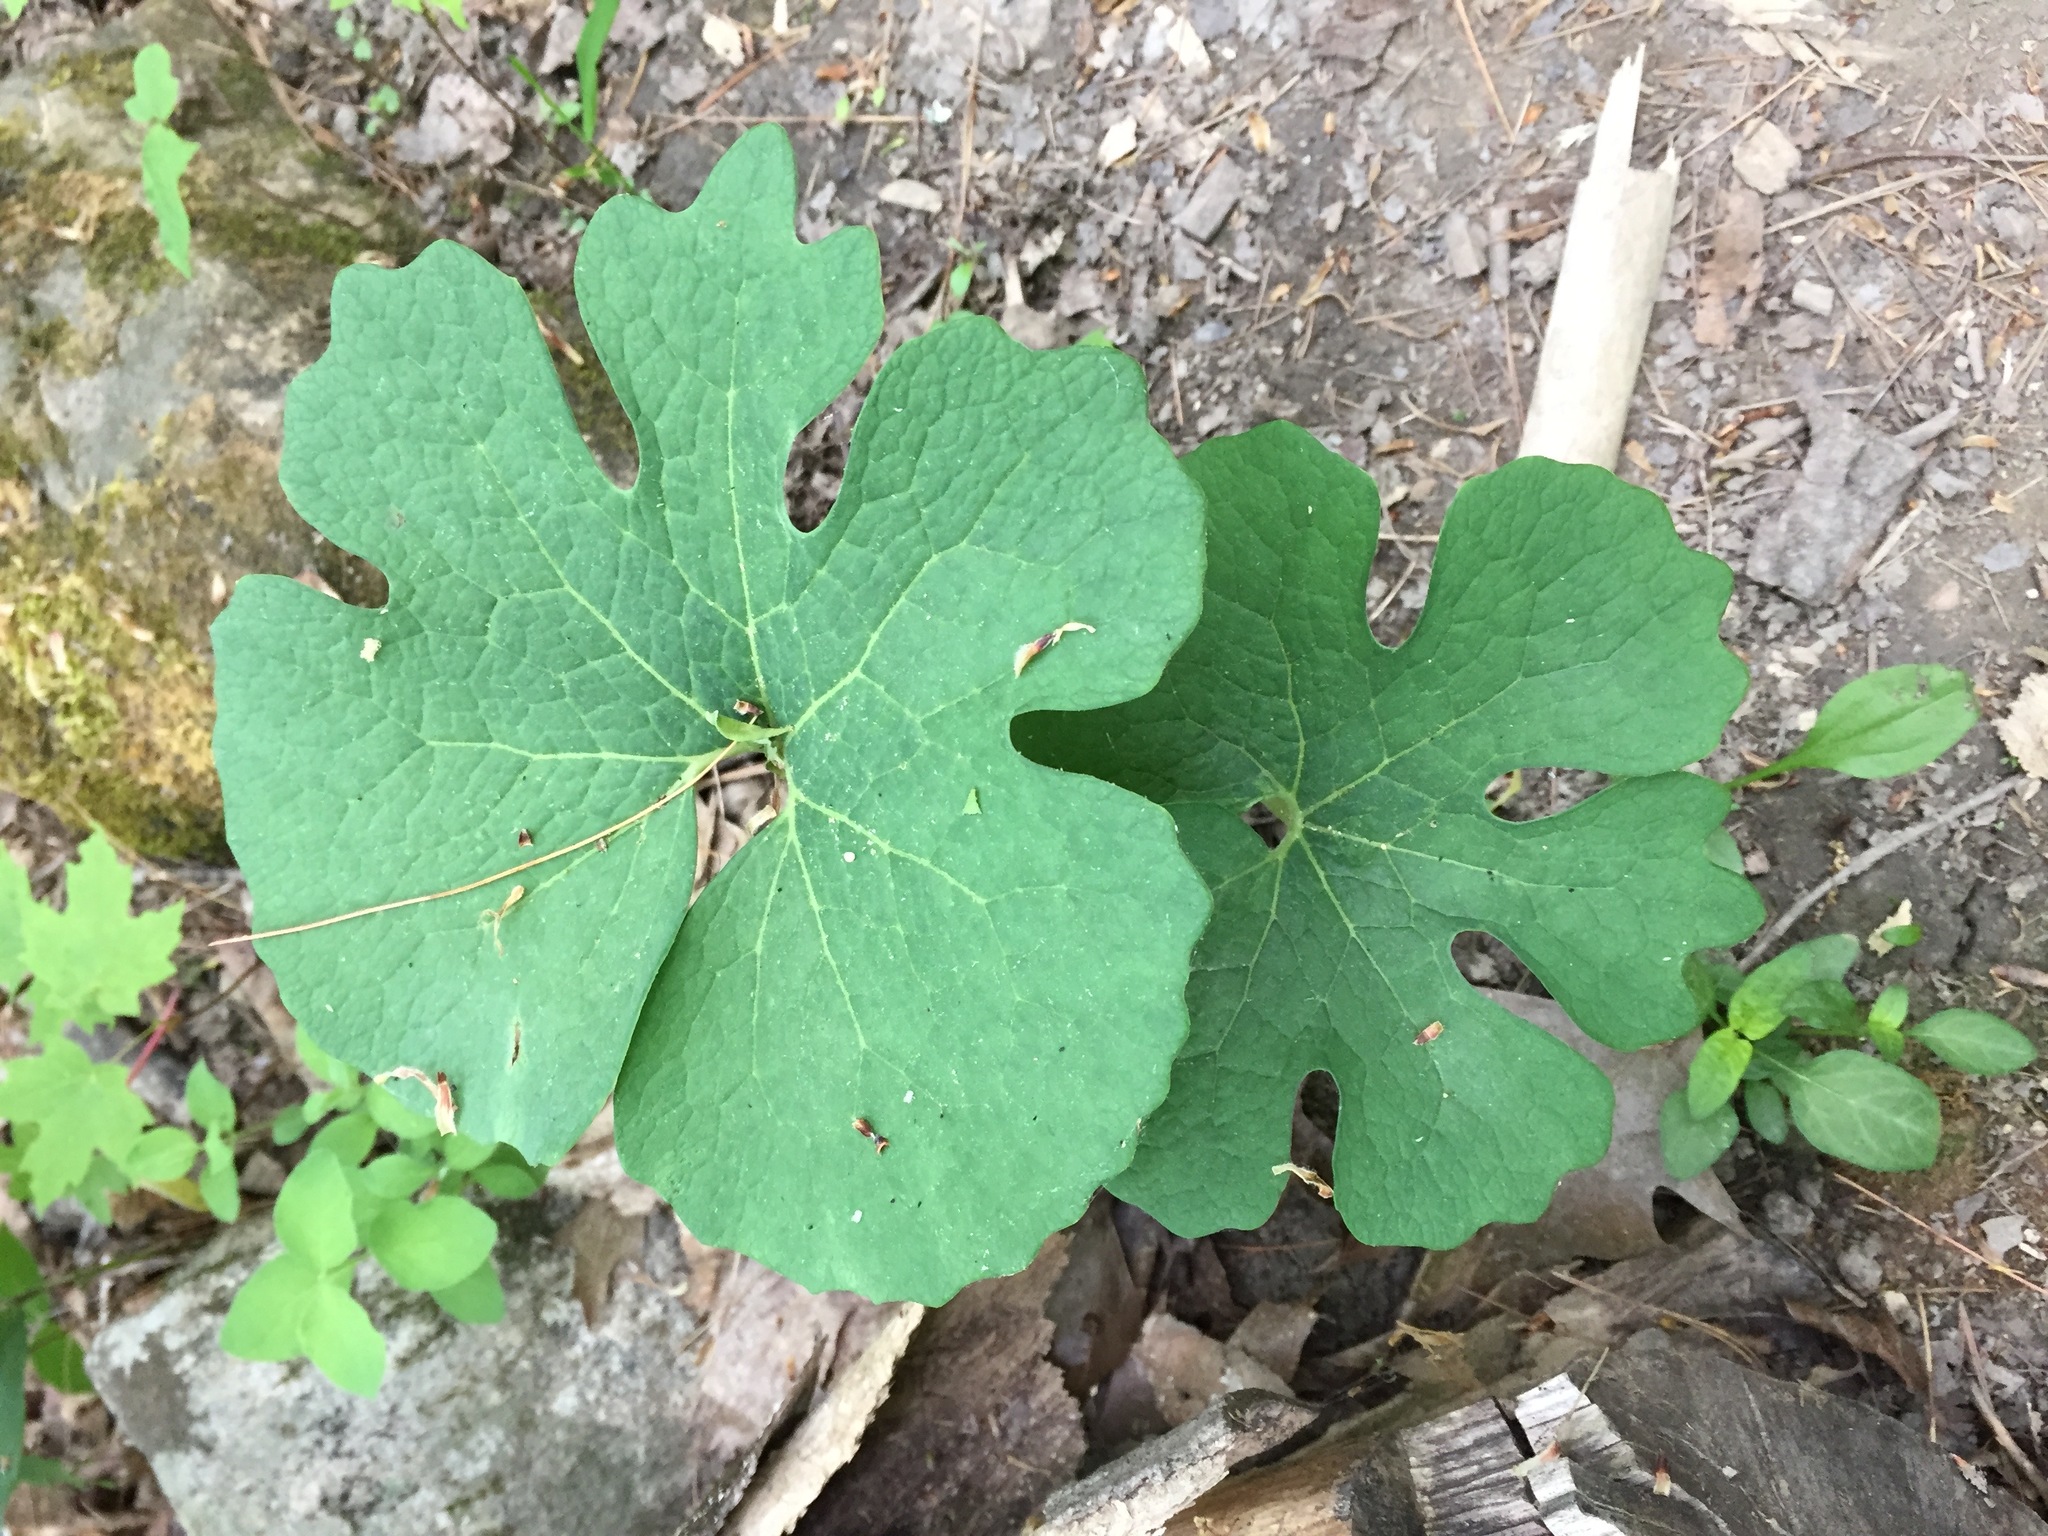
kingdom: Plantae
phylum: Tracheophyta
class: Magnoliopsida
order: Ranunculales
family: Papaveraceae
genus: Sanguinaria
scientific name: Sanguinaria canadensis
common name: Bloodroot
